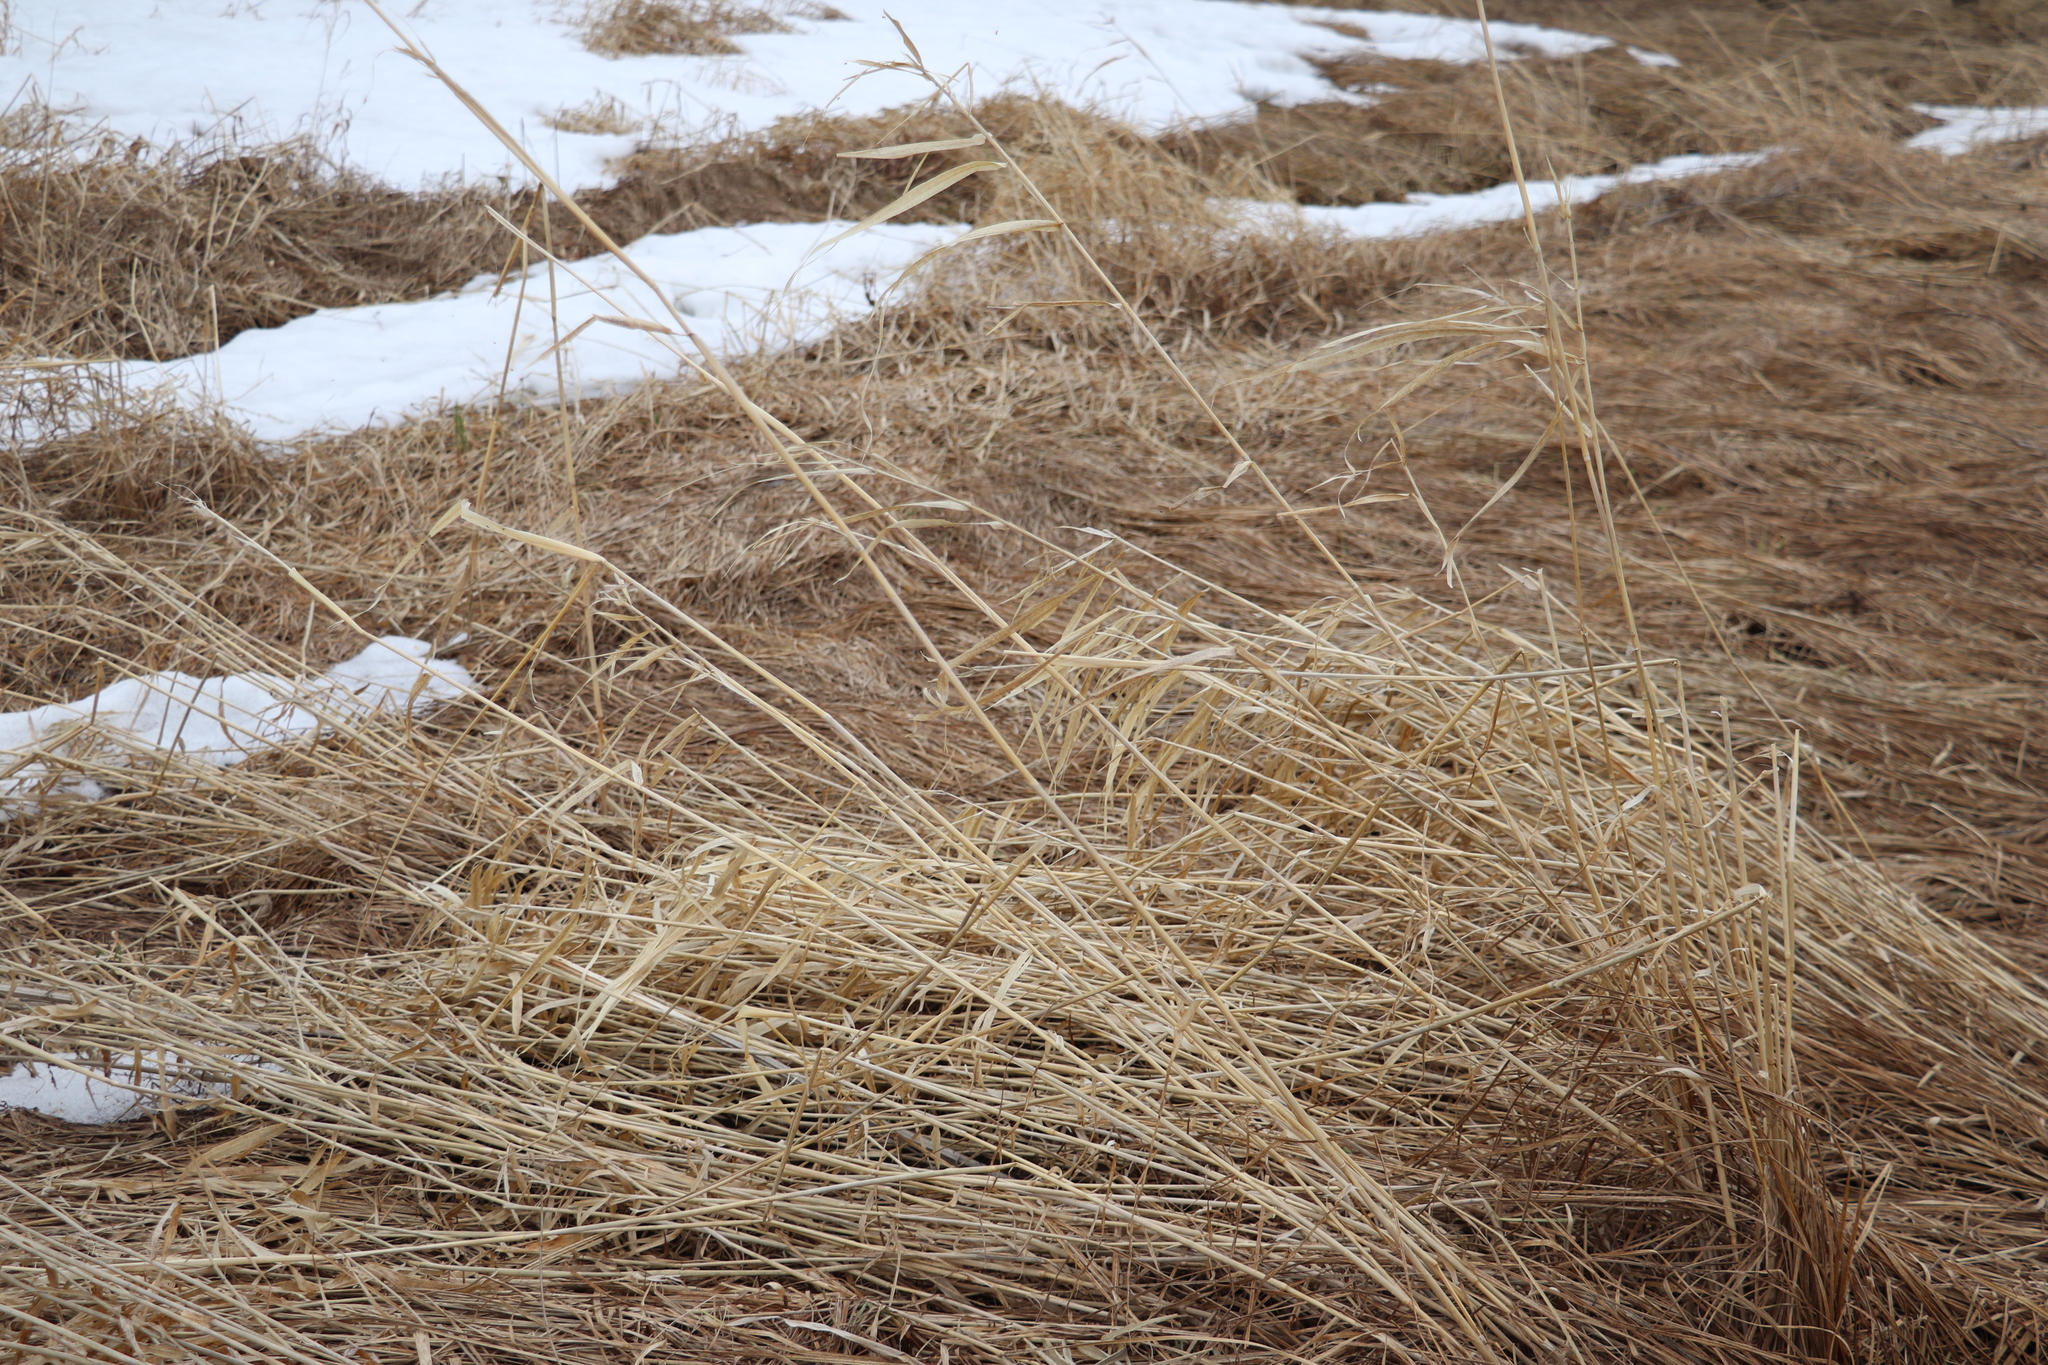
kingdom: Plantae
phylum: Tracheophyta
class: Liliopsida
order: Poales
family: Poaceae
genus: Phalaris
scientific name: Phalaris arundinacea
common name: Reed canary-grass
